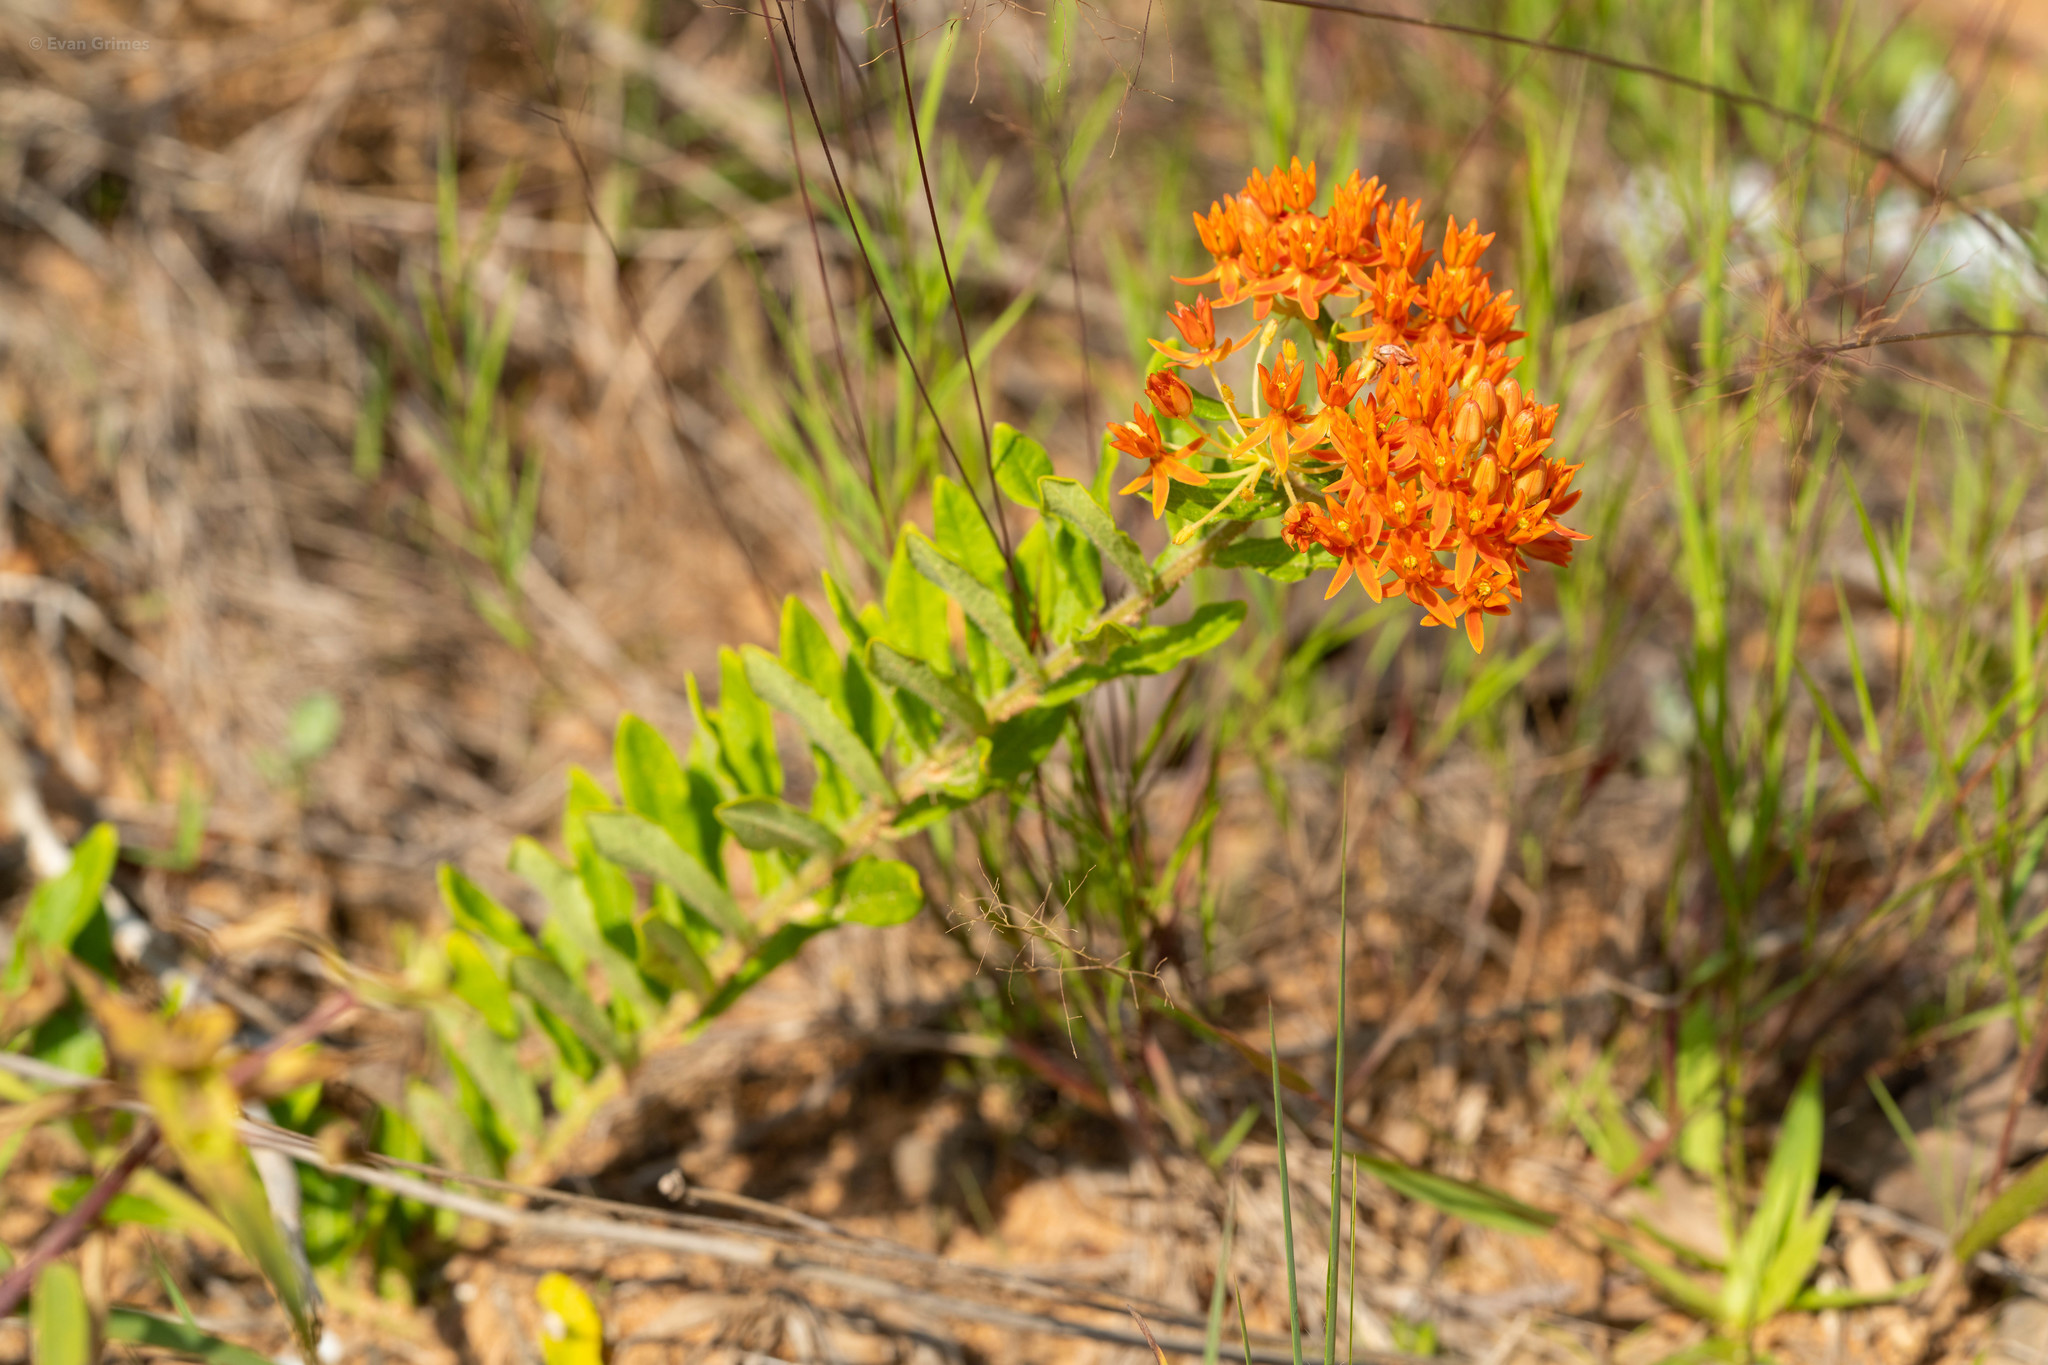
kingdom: Plantae
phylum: Tracheophyta
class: Magnoliopsida
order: Gentianales
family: Apocynaceae
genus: Asclepias
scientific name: Asclepias tuberosa
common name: Butterfly milkweed
